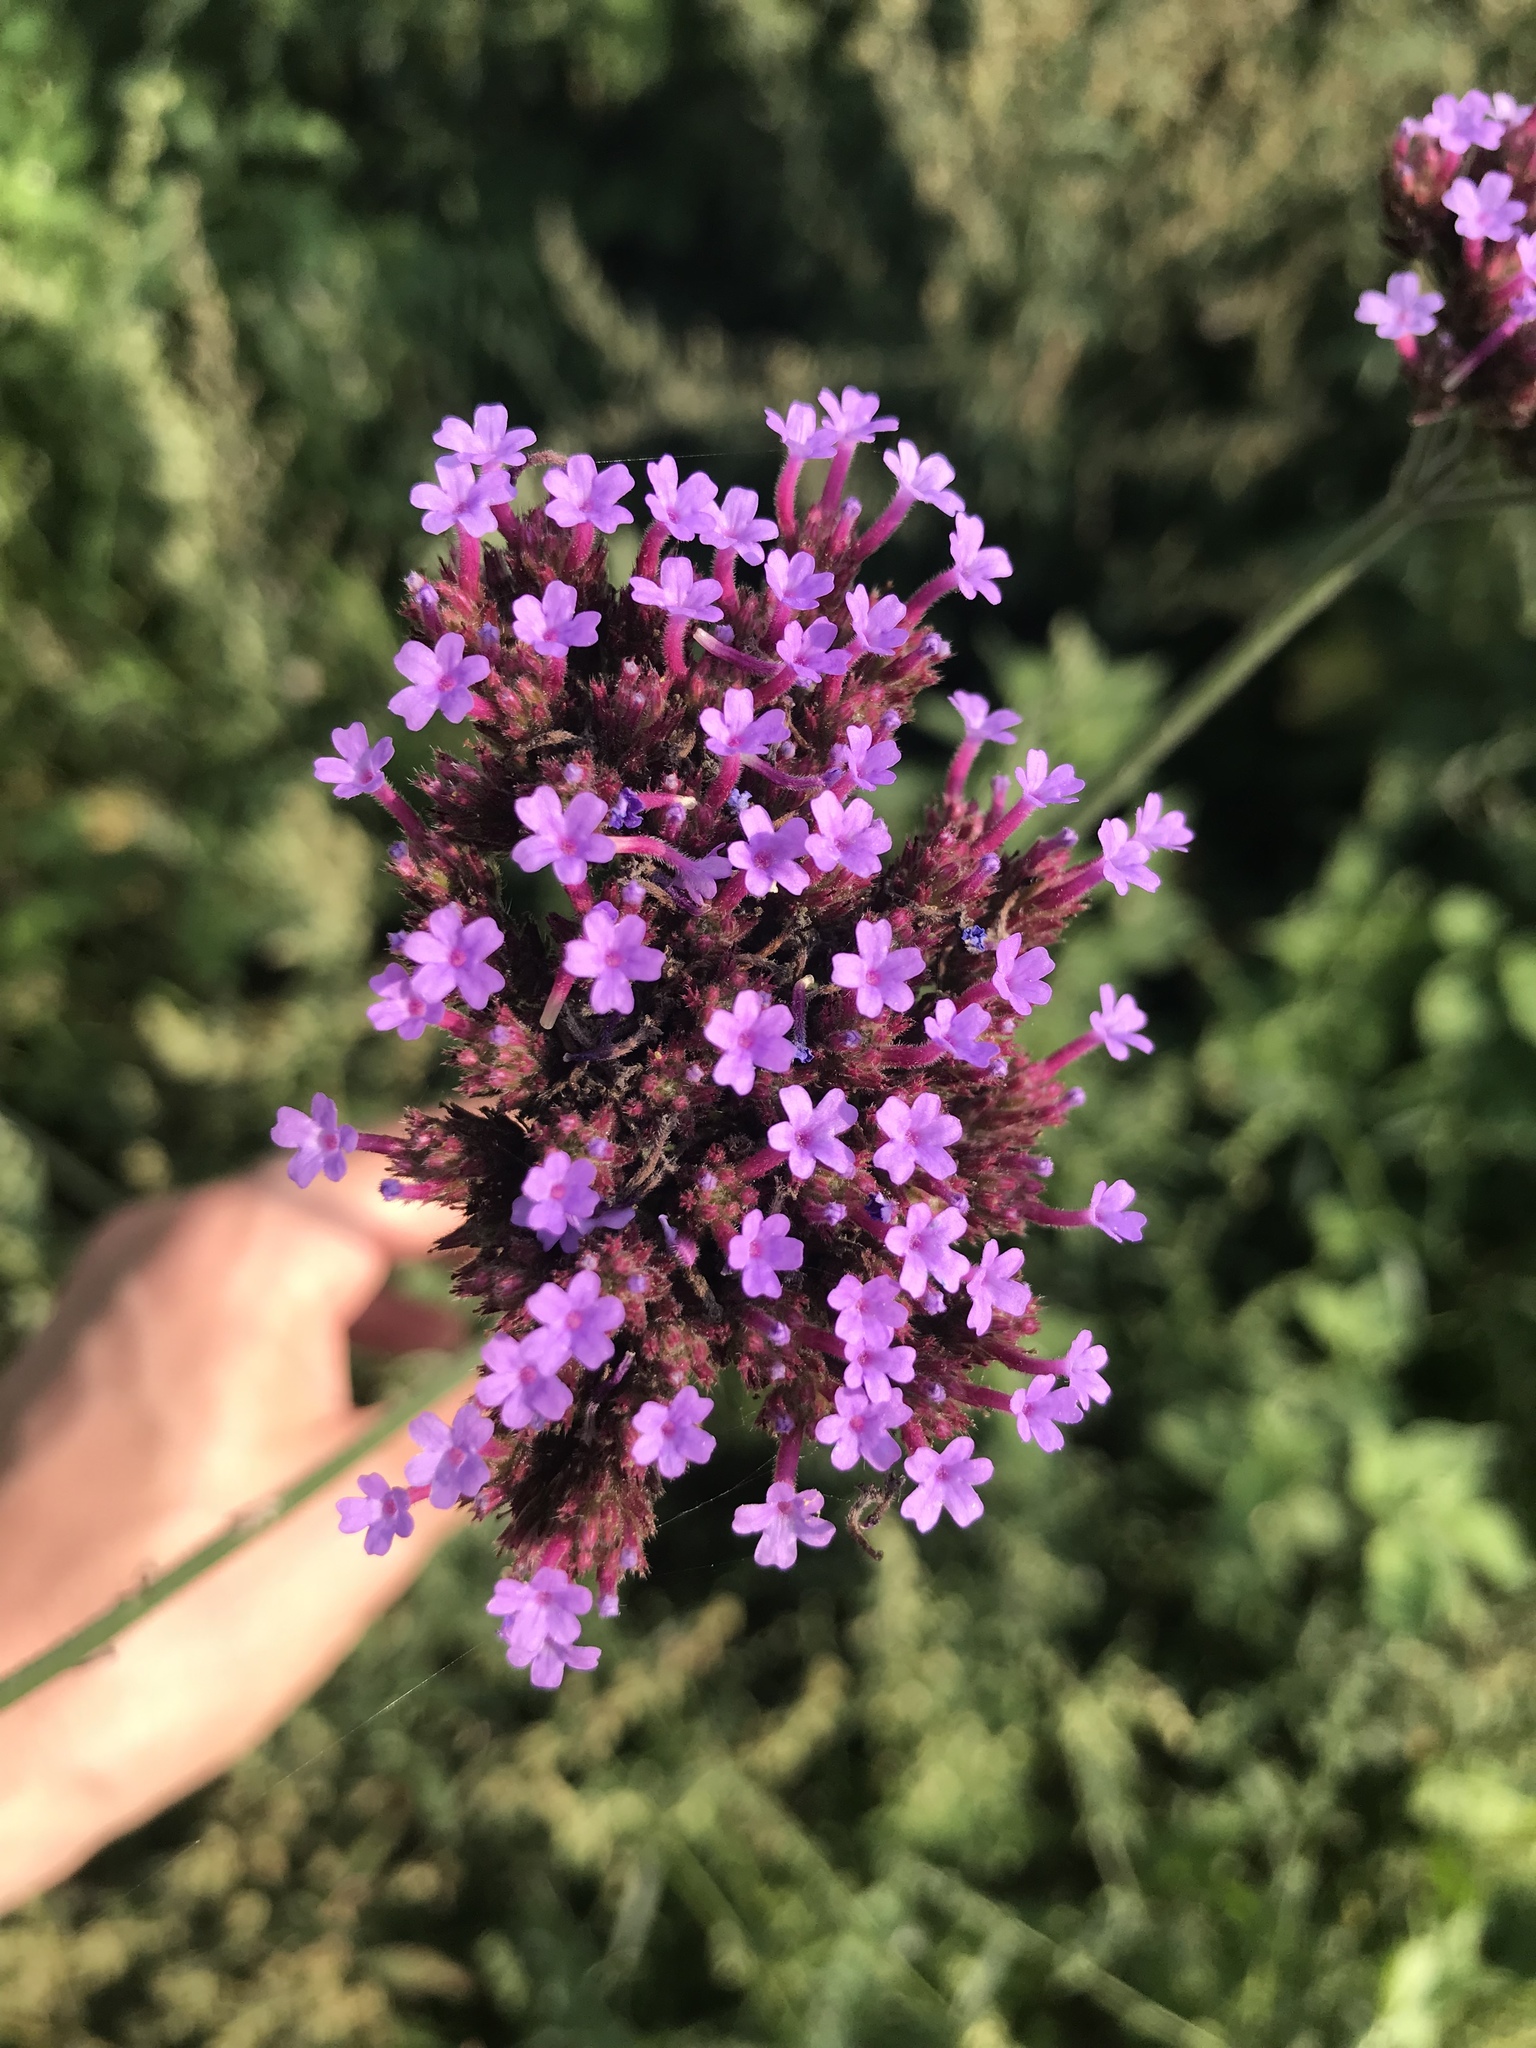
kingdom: Plantae
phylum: Tracheophyta
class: Magnoliopsida
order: Lamiales
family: Verbenaceae
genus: Verbena
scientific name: Verbena bonariensis
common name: Purpletop vervain
